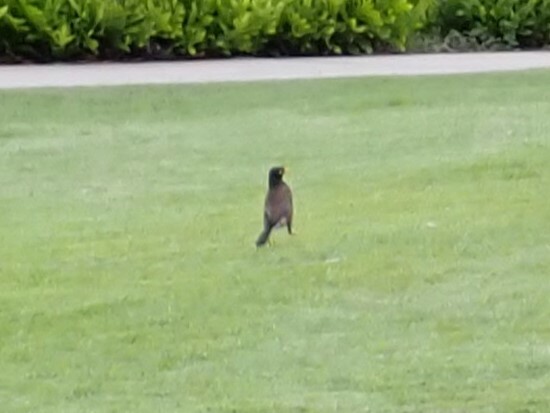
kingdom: Animalia
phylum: Chordata
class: Aves
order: Passeriformes
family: Sturnidae
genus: Acridotheres
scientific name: Acridotheres tristis
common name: Common myna
